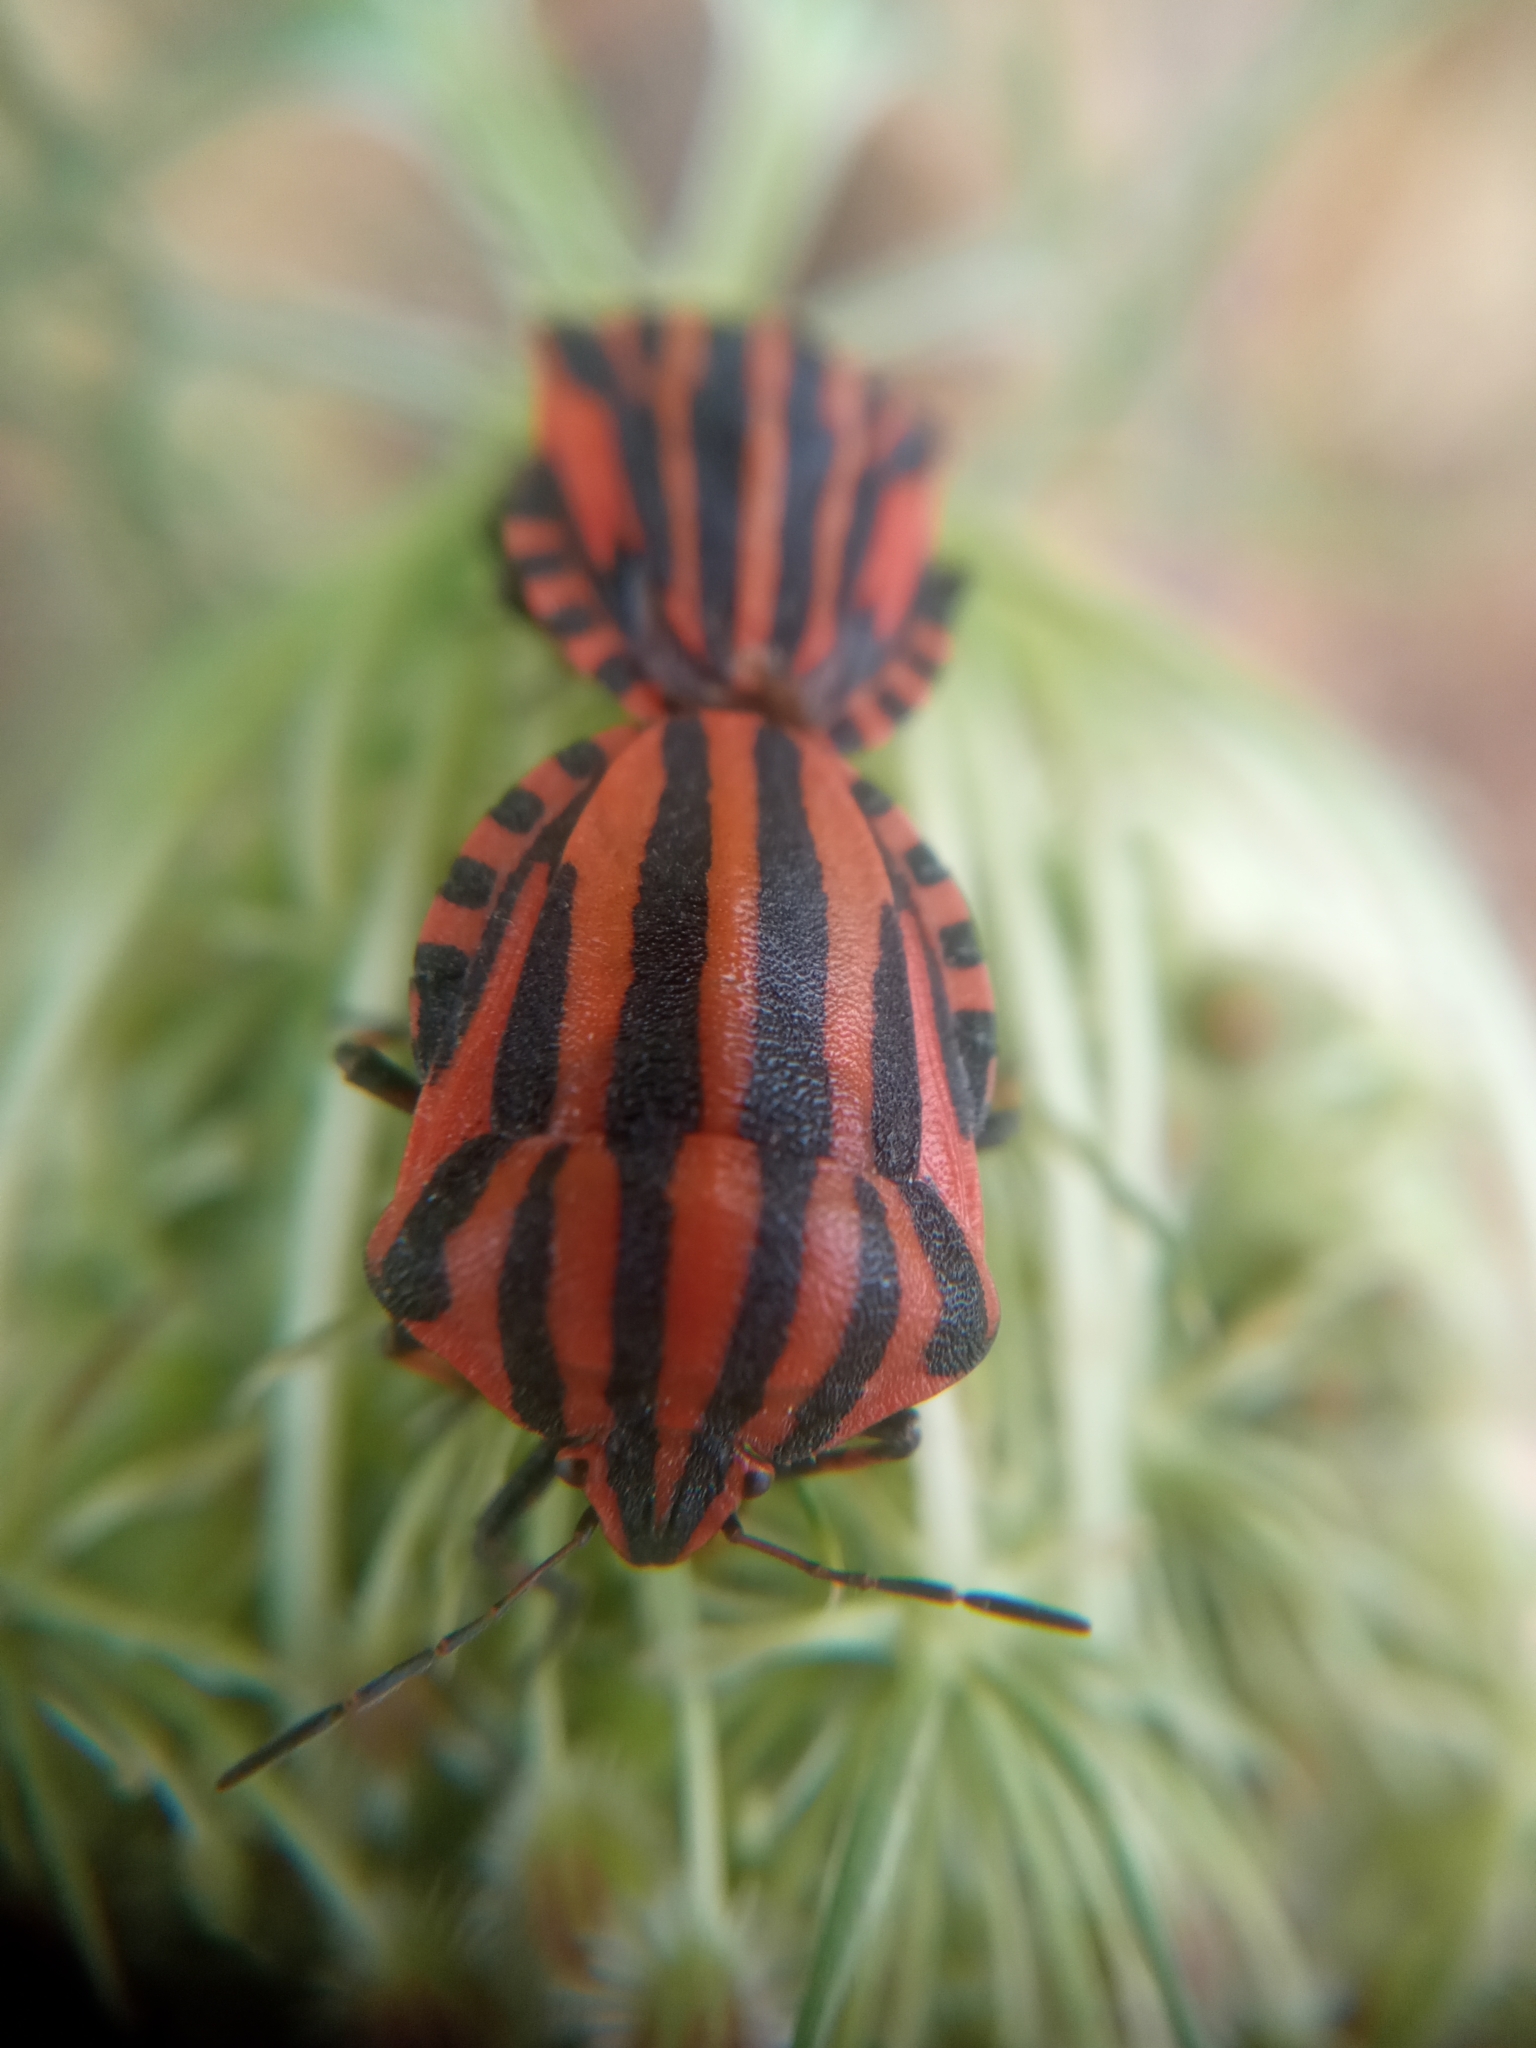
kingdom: Animalia
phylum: Arthropoda
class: Insecta
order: Hemiptera
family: Pentatomidae
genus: Graphosoma
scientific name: Graphosoma italicum
